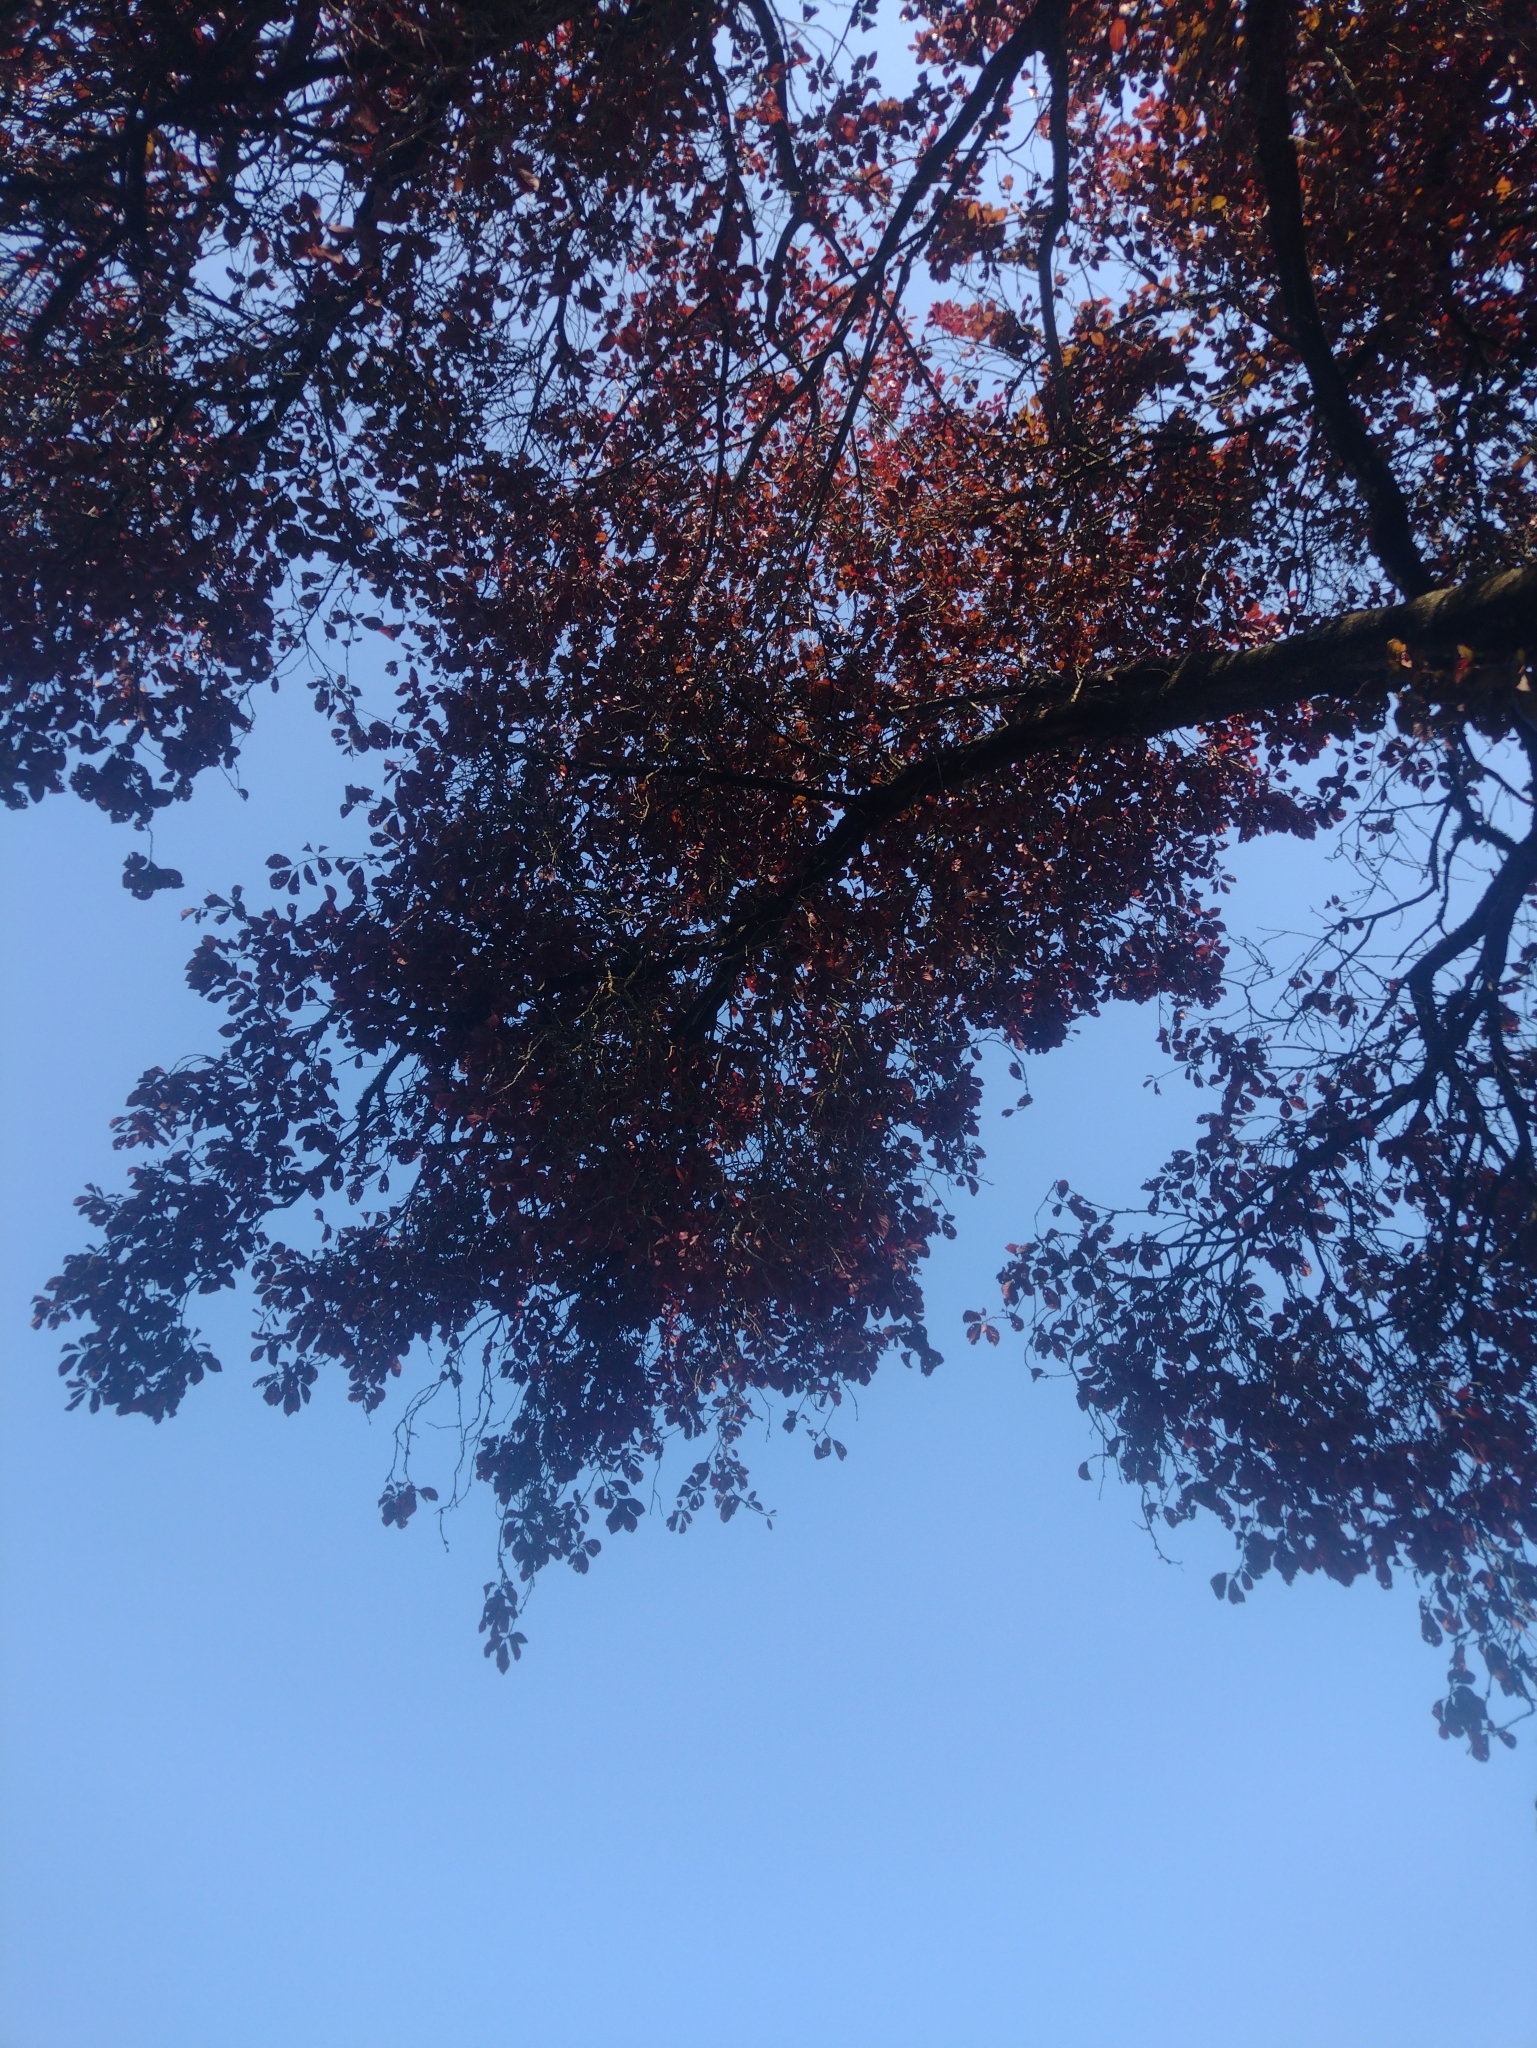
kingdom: Animalia
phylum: Chordata
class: Aves
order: Passeriformes
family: Passerellidae
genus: Junco
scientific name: Junco hyemalis
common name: Dark-eyed junco
